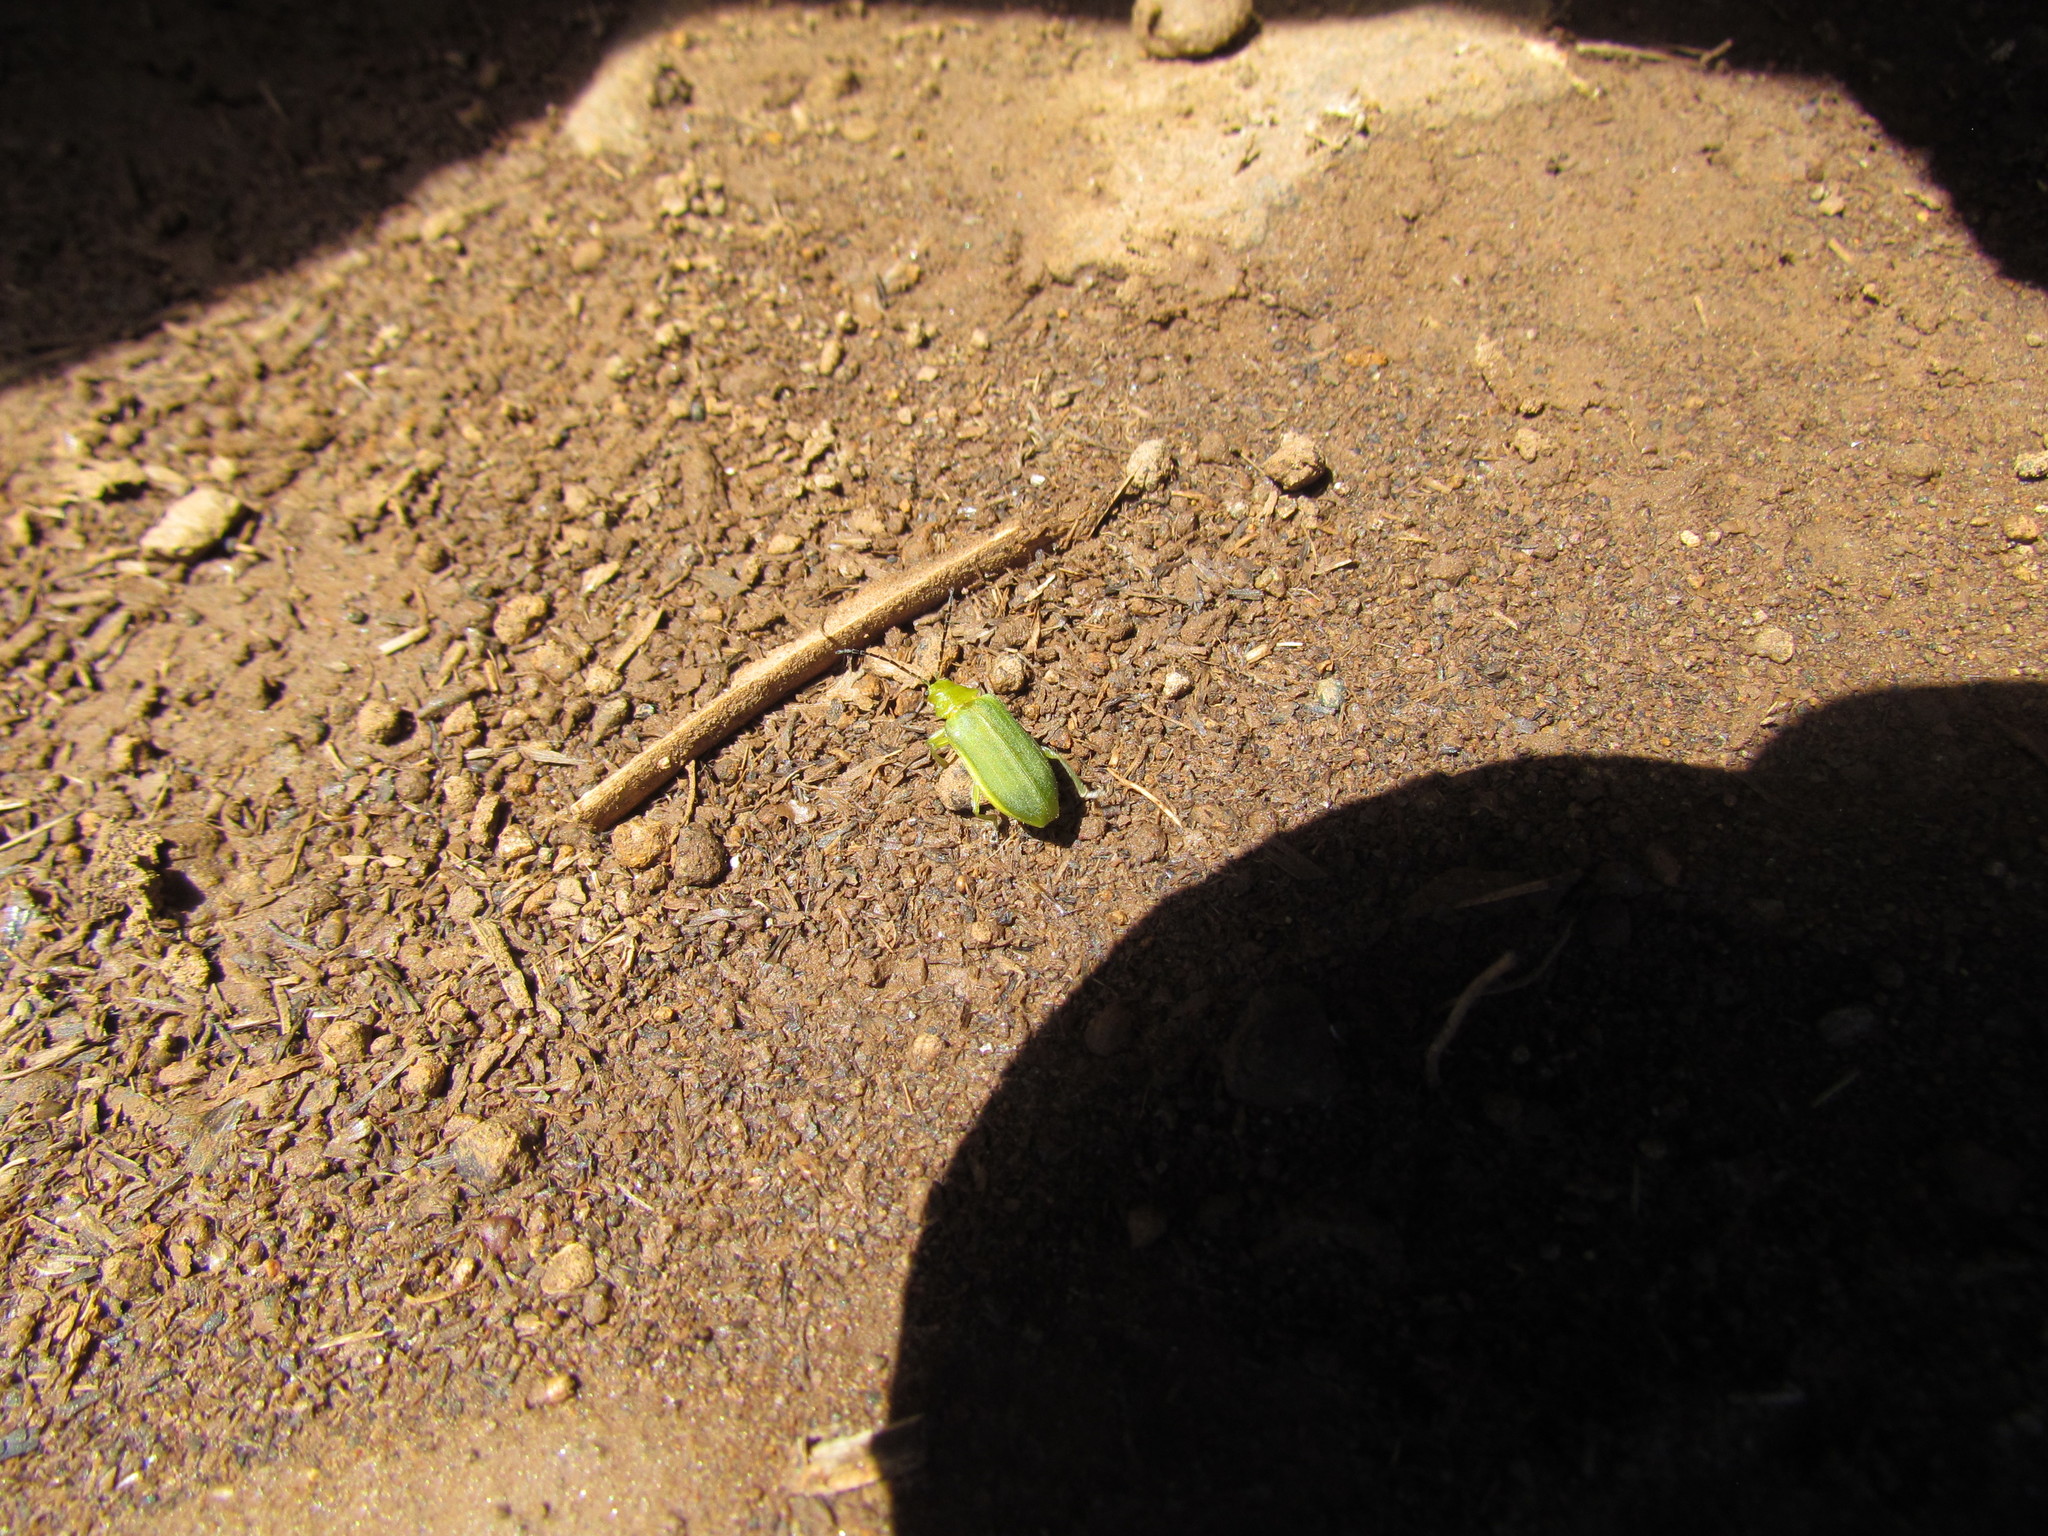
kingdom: Animalia
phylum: Arthropoda
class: Insecta
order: Coleoptera
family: Chrysomelidae
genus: Neolochmaea
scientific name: Neolochmaea
